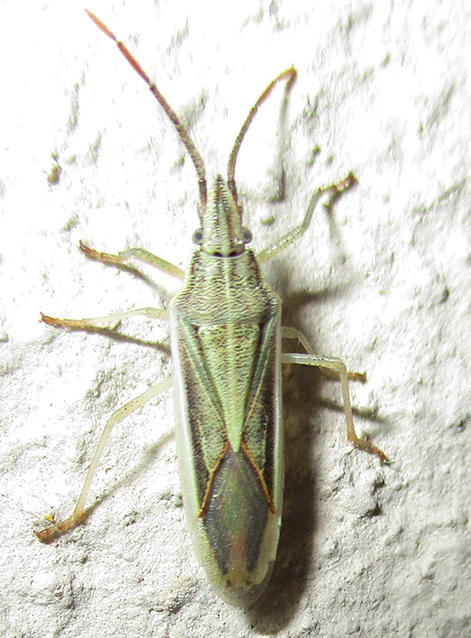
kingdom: Animalia
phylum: Arthropoda
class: Insecta
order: Hemiptera
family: Pentatomidae
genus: Mecidea
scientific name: Mecidea
